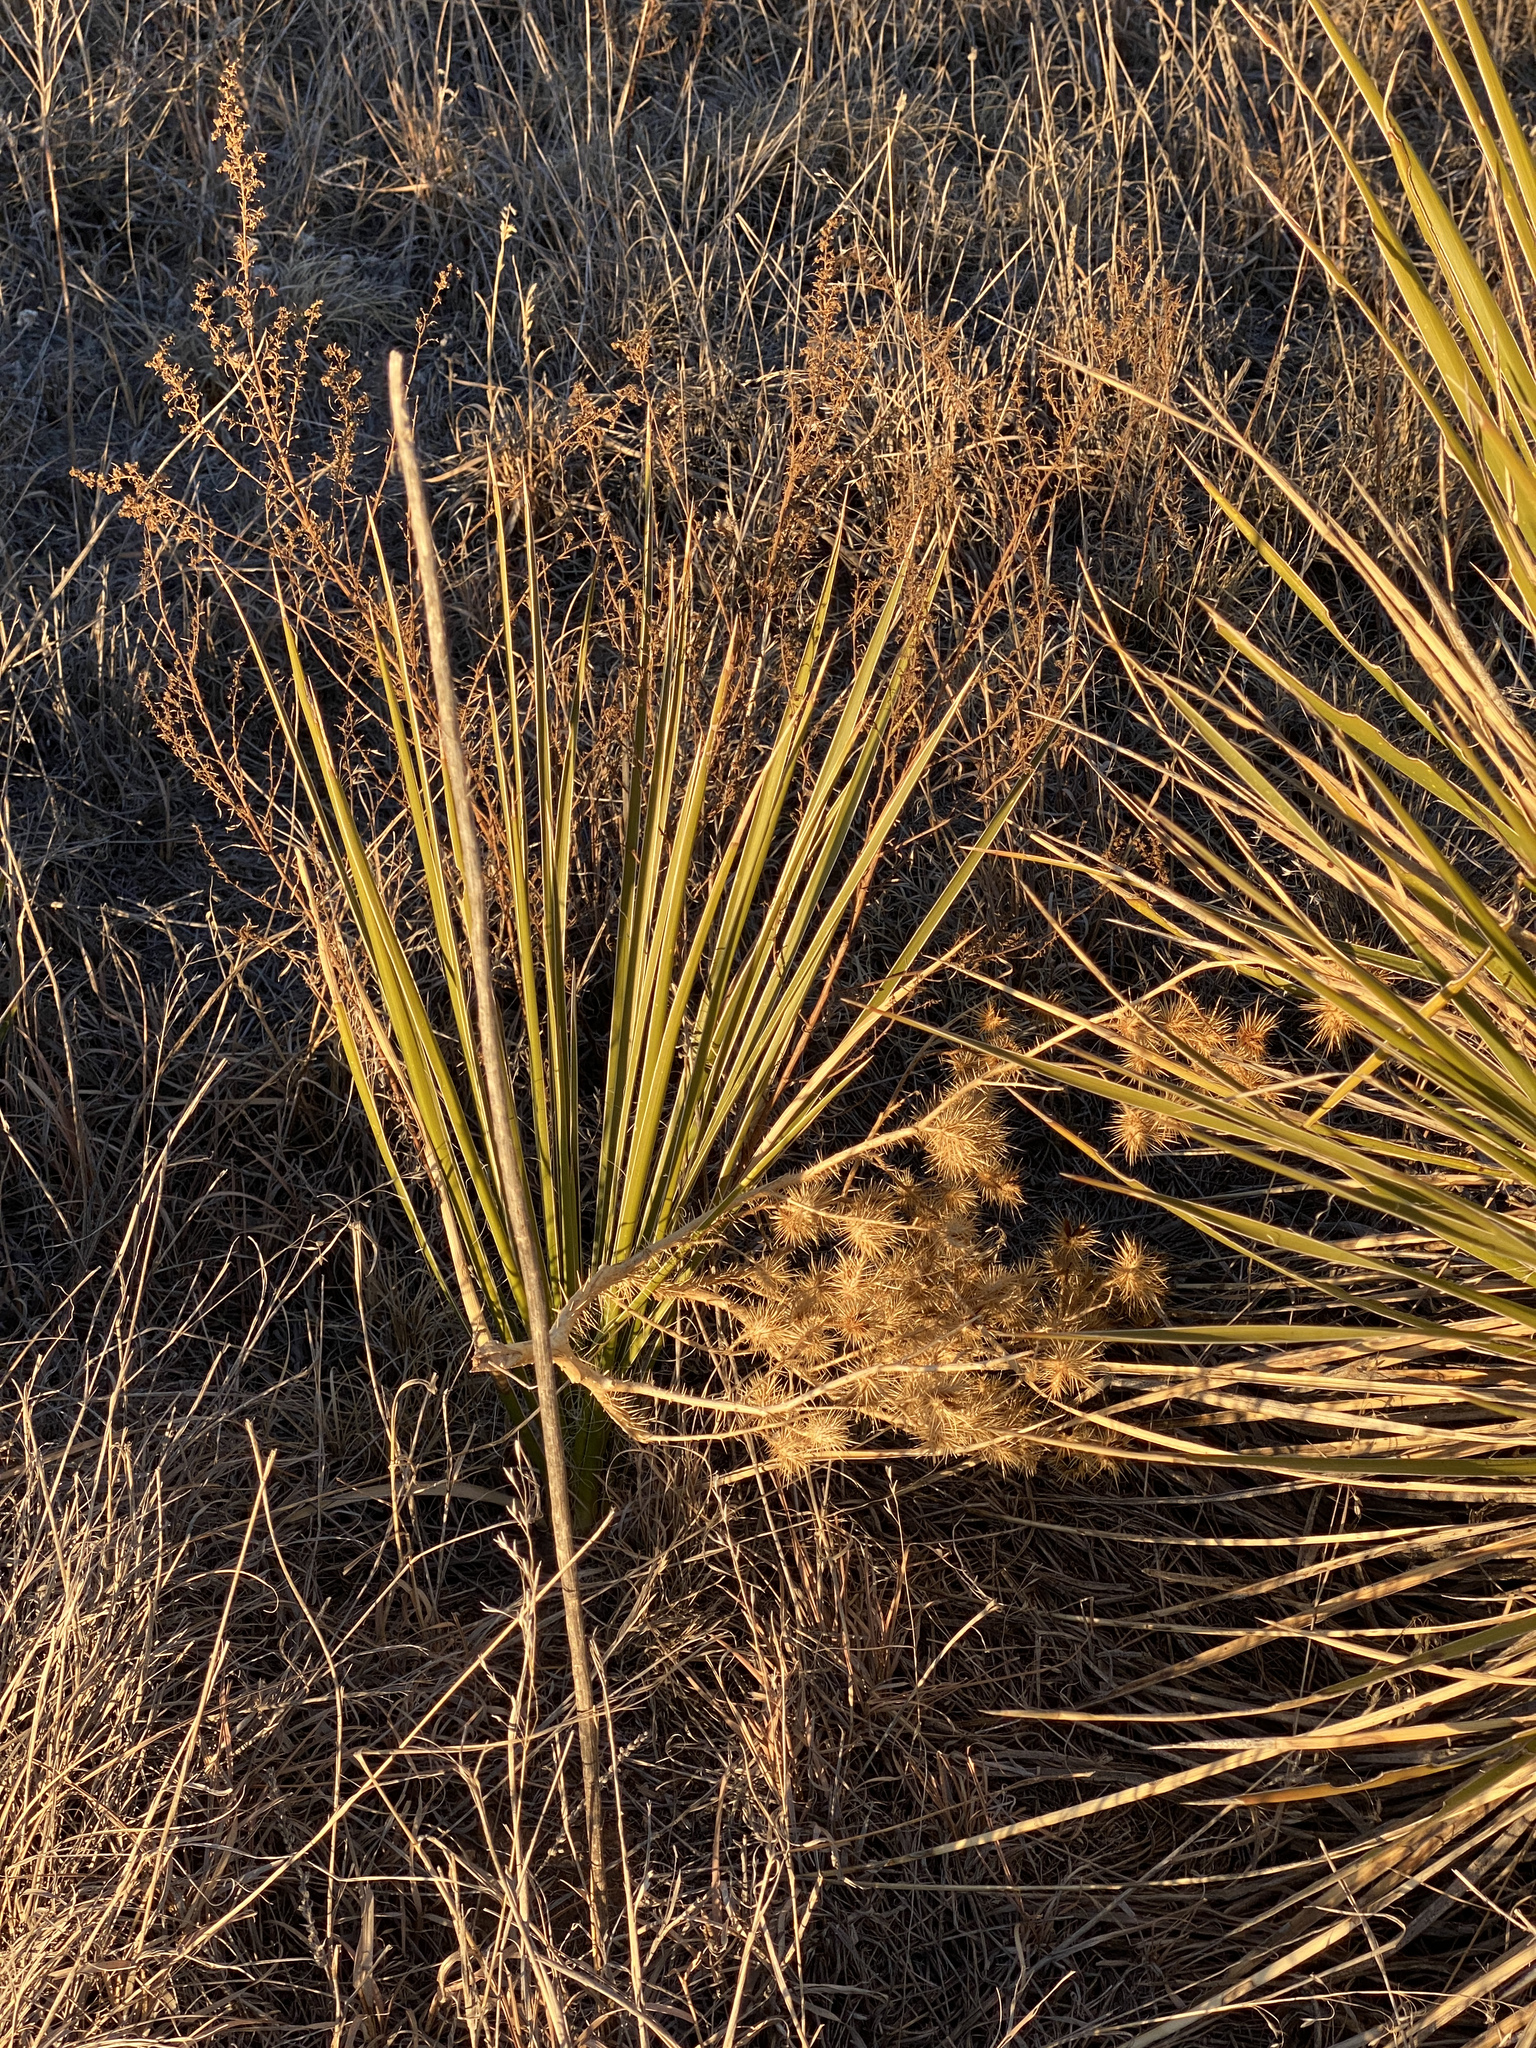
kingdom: Plantae
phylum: Tracheophyta
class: Magnoliopsida
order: Solanales
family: Solanaceae
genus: Solanum
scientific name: Solanum angustifolium
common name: Buffalobur nightshade
